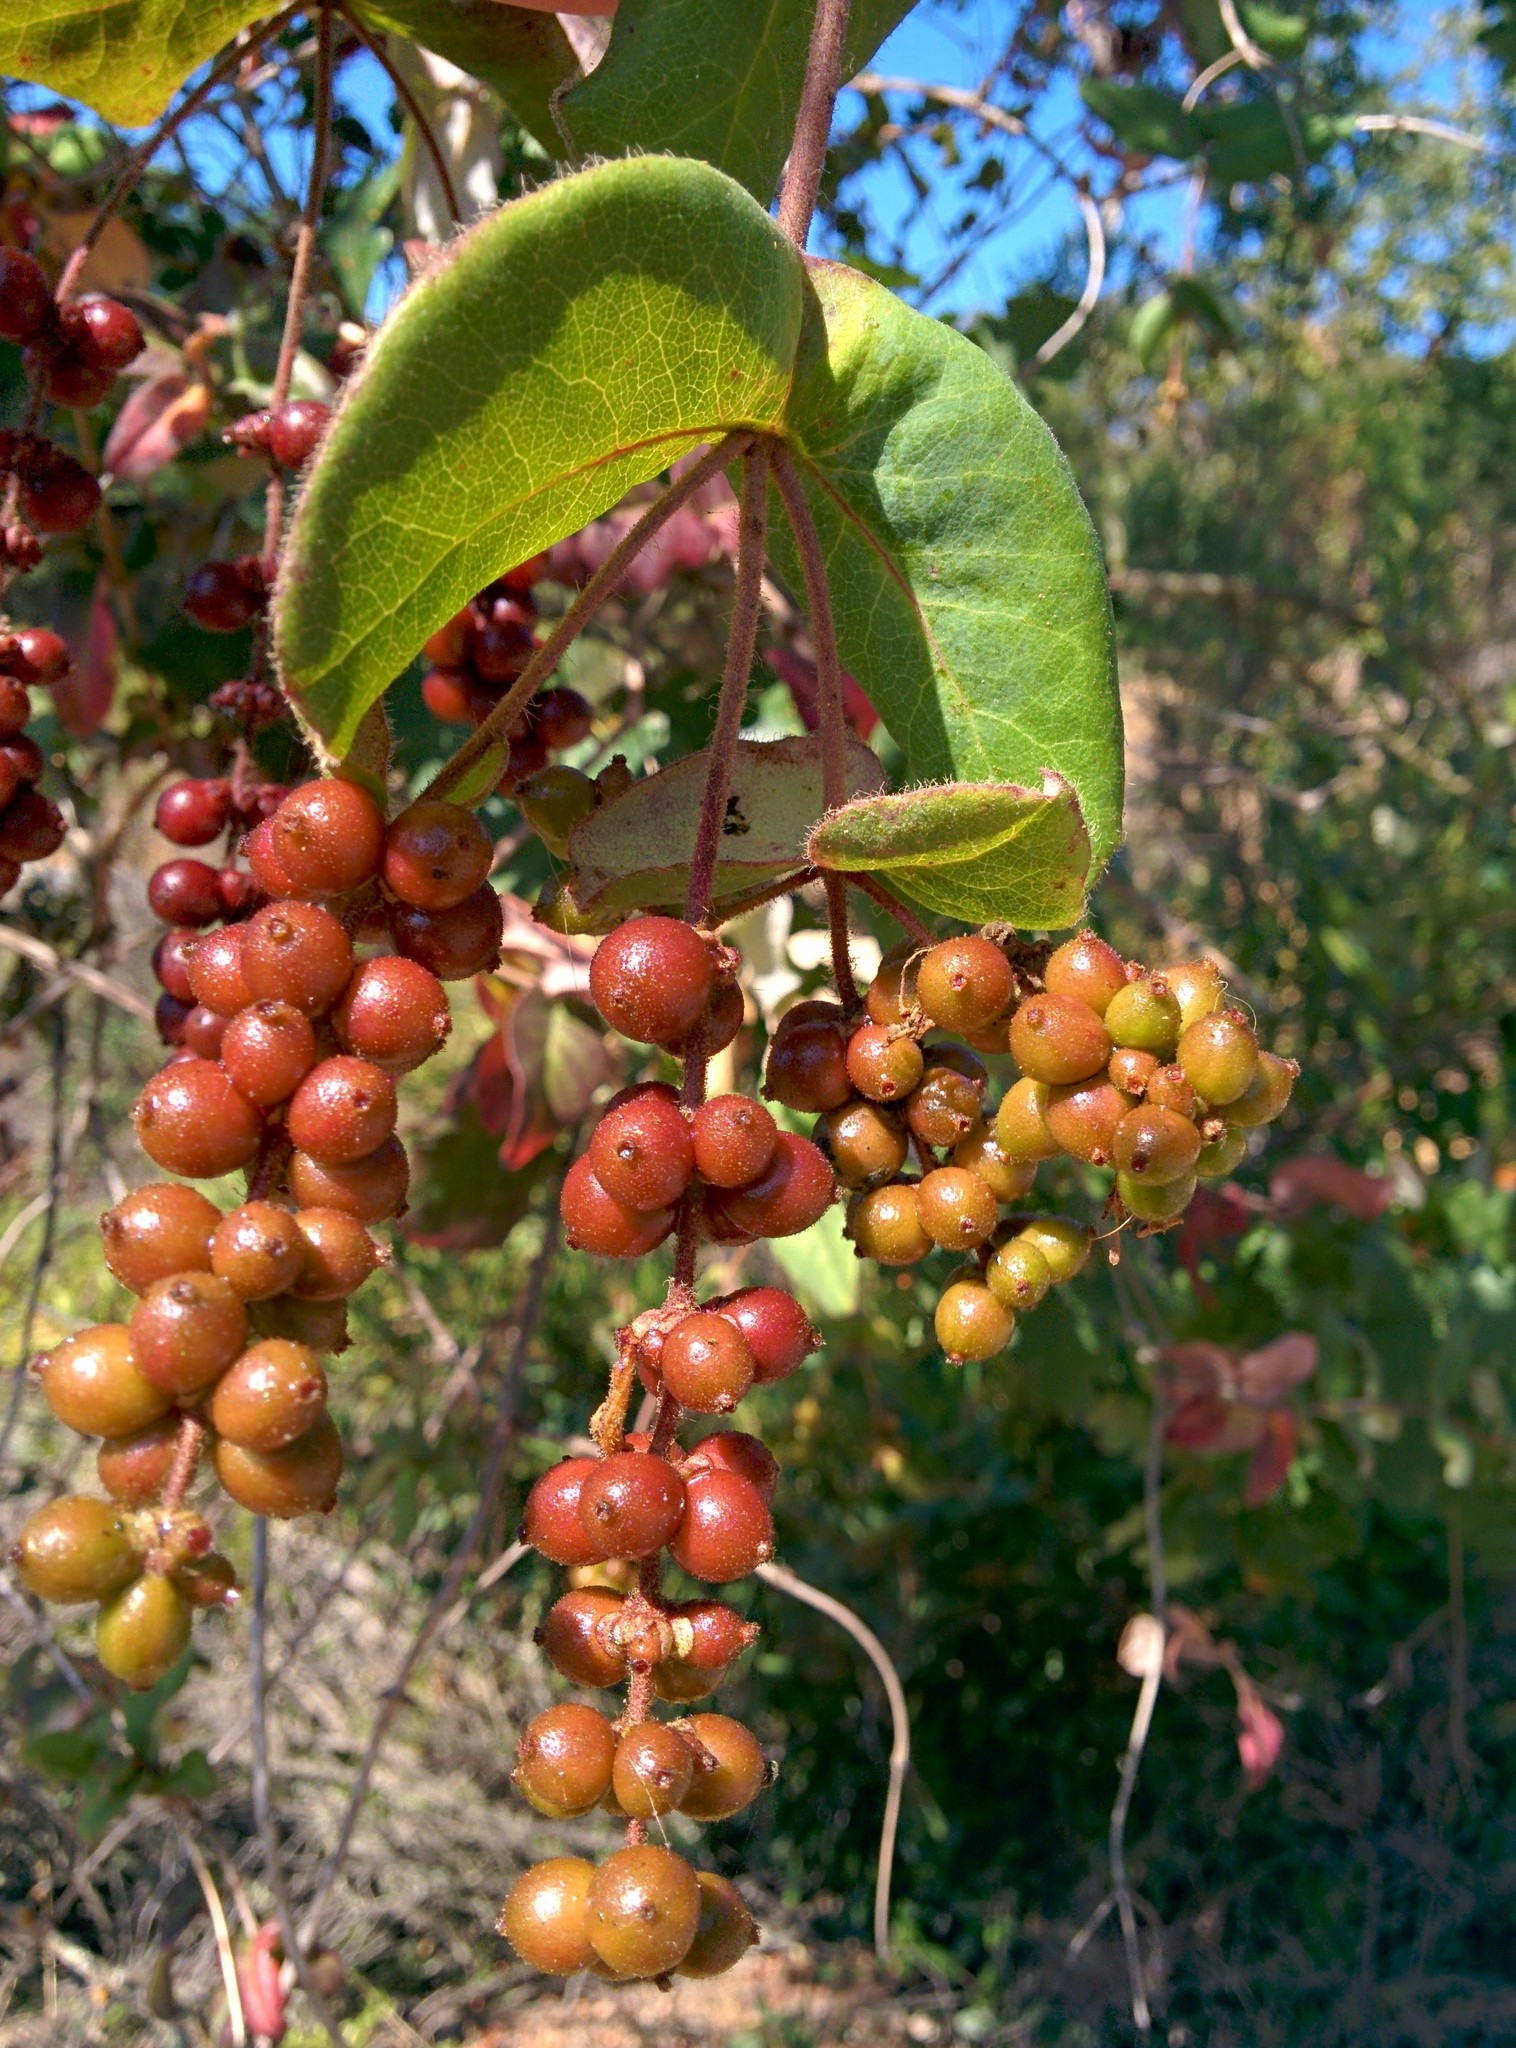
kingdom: Plantae
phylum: Tracheophyta
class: Magnoliopsida
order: Dipsacales
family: Caprifoliaceae
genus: Lonicera
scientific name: Lonicera hispidula
